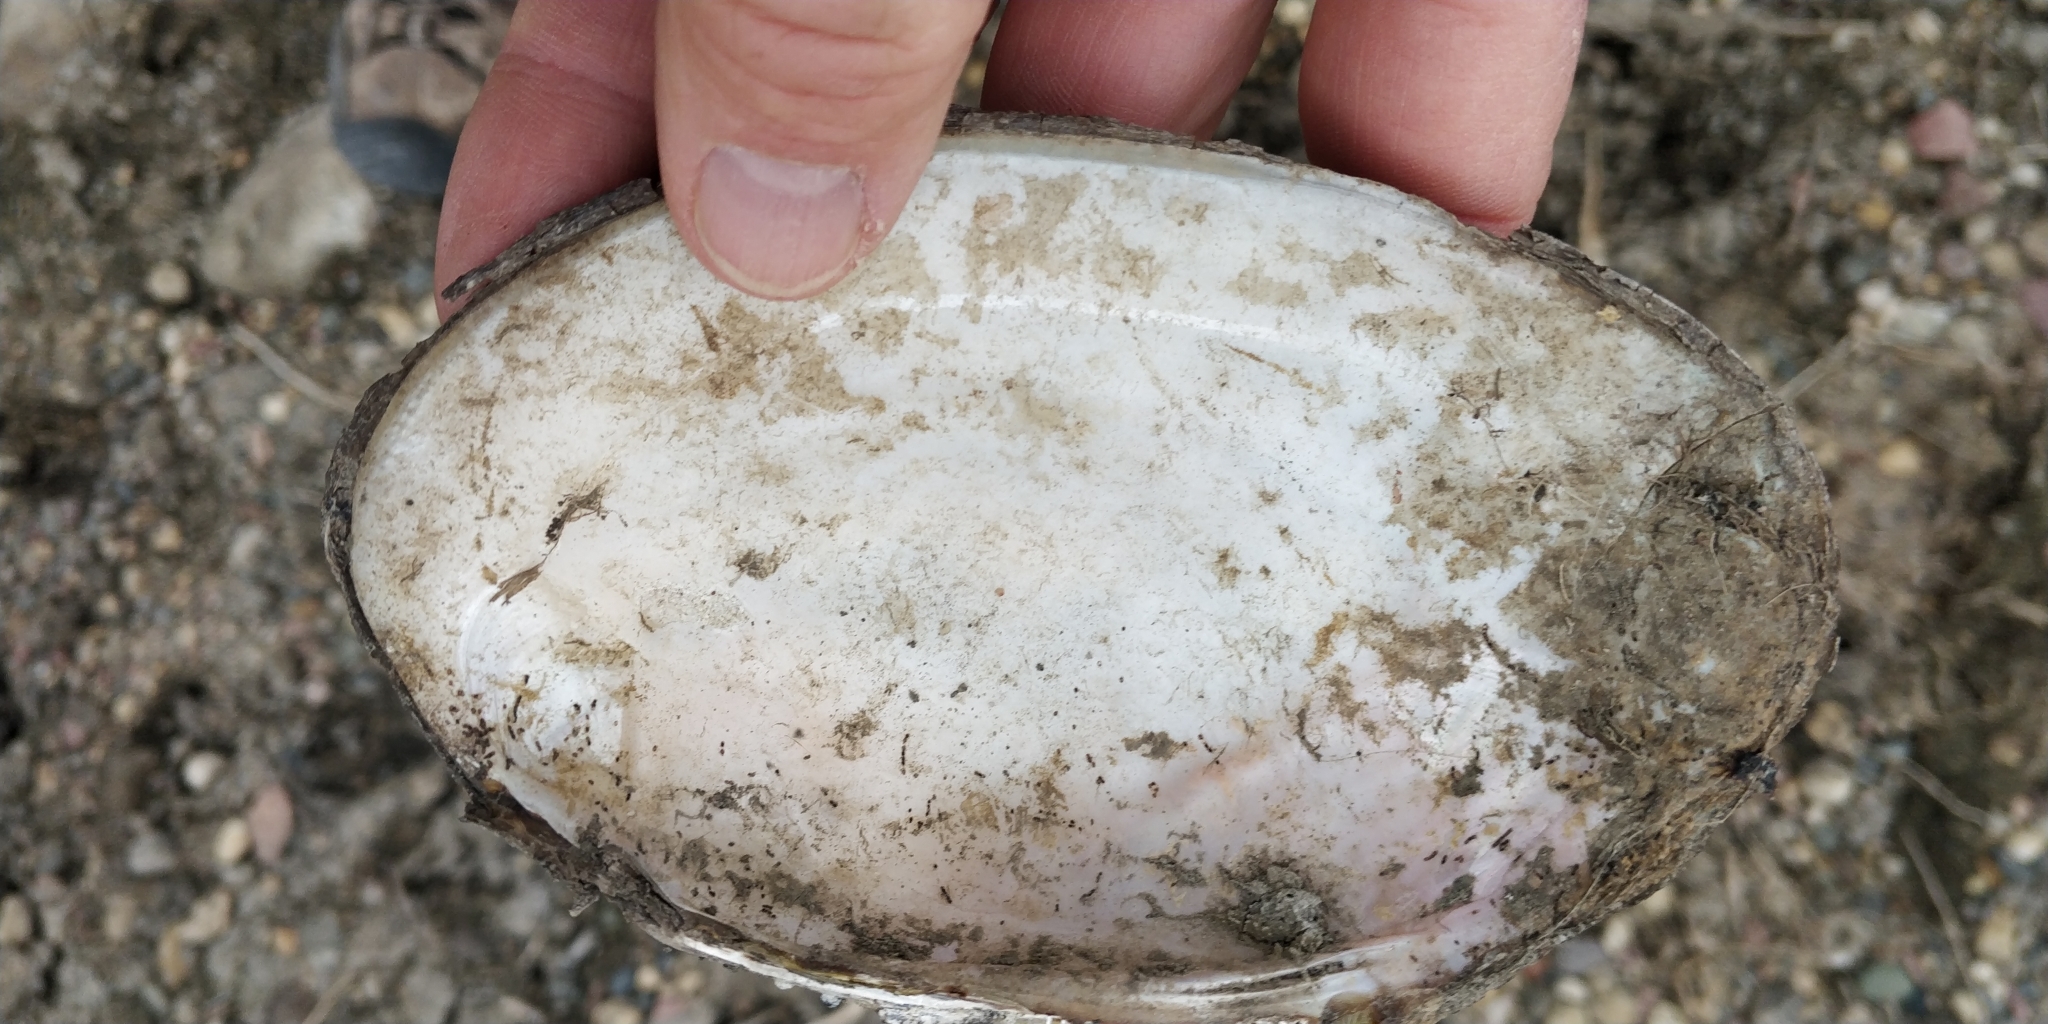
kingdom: Animalia
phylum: Mollusca
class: Bivalvia
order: Unionida
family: Unionidae
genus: Potamilus
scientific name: Potamilus fragilis
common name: Fragile papershell
